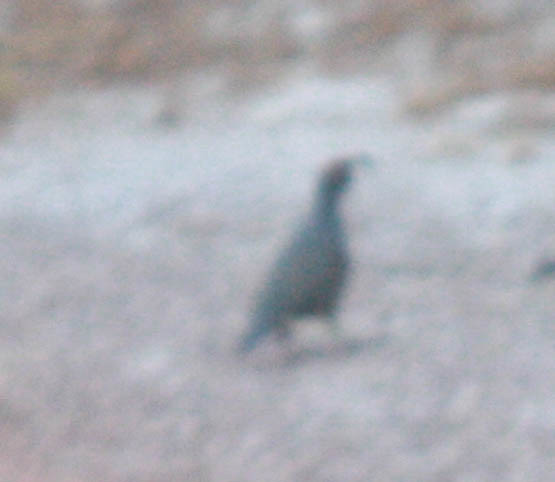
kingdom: Animalia
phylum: Chordata
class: Aves
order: Galliformes
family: Odontophoridae
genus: Callipepla
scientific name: Callipepla gambelii
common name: Gambel's quail
